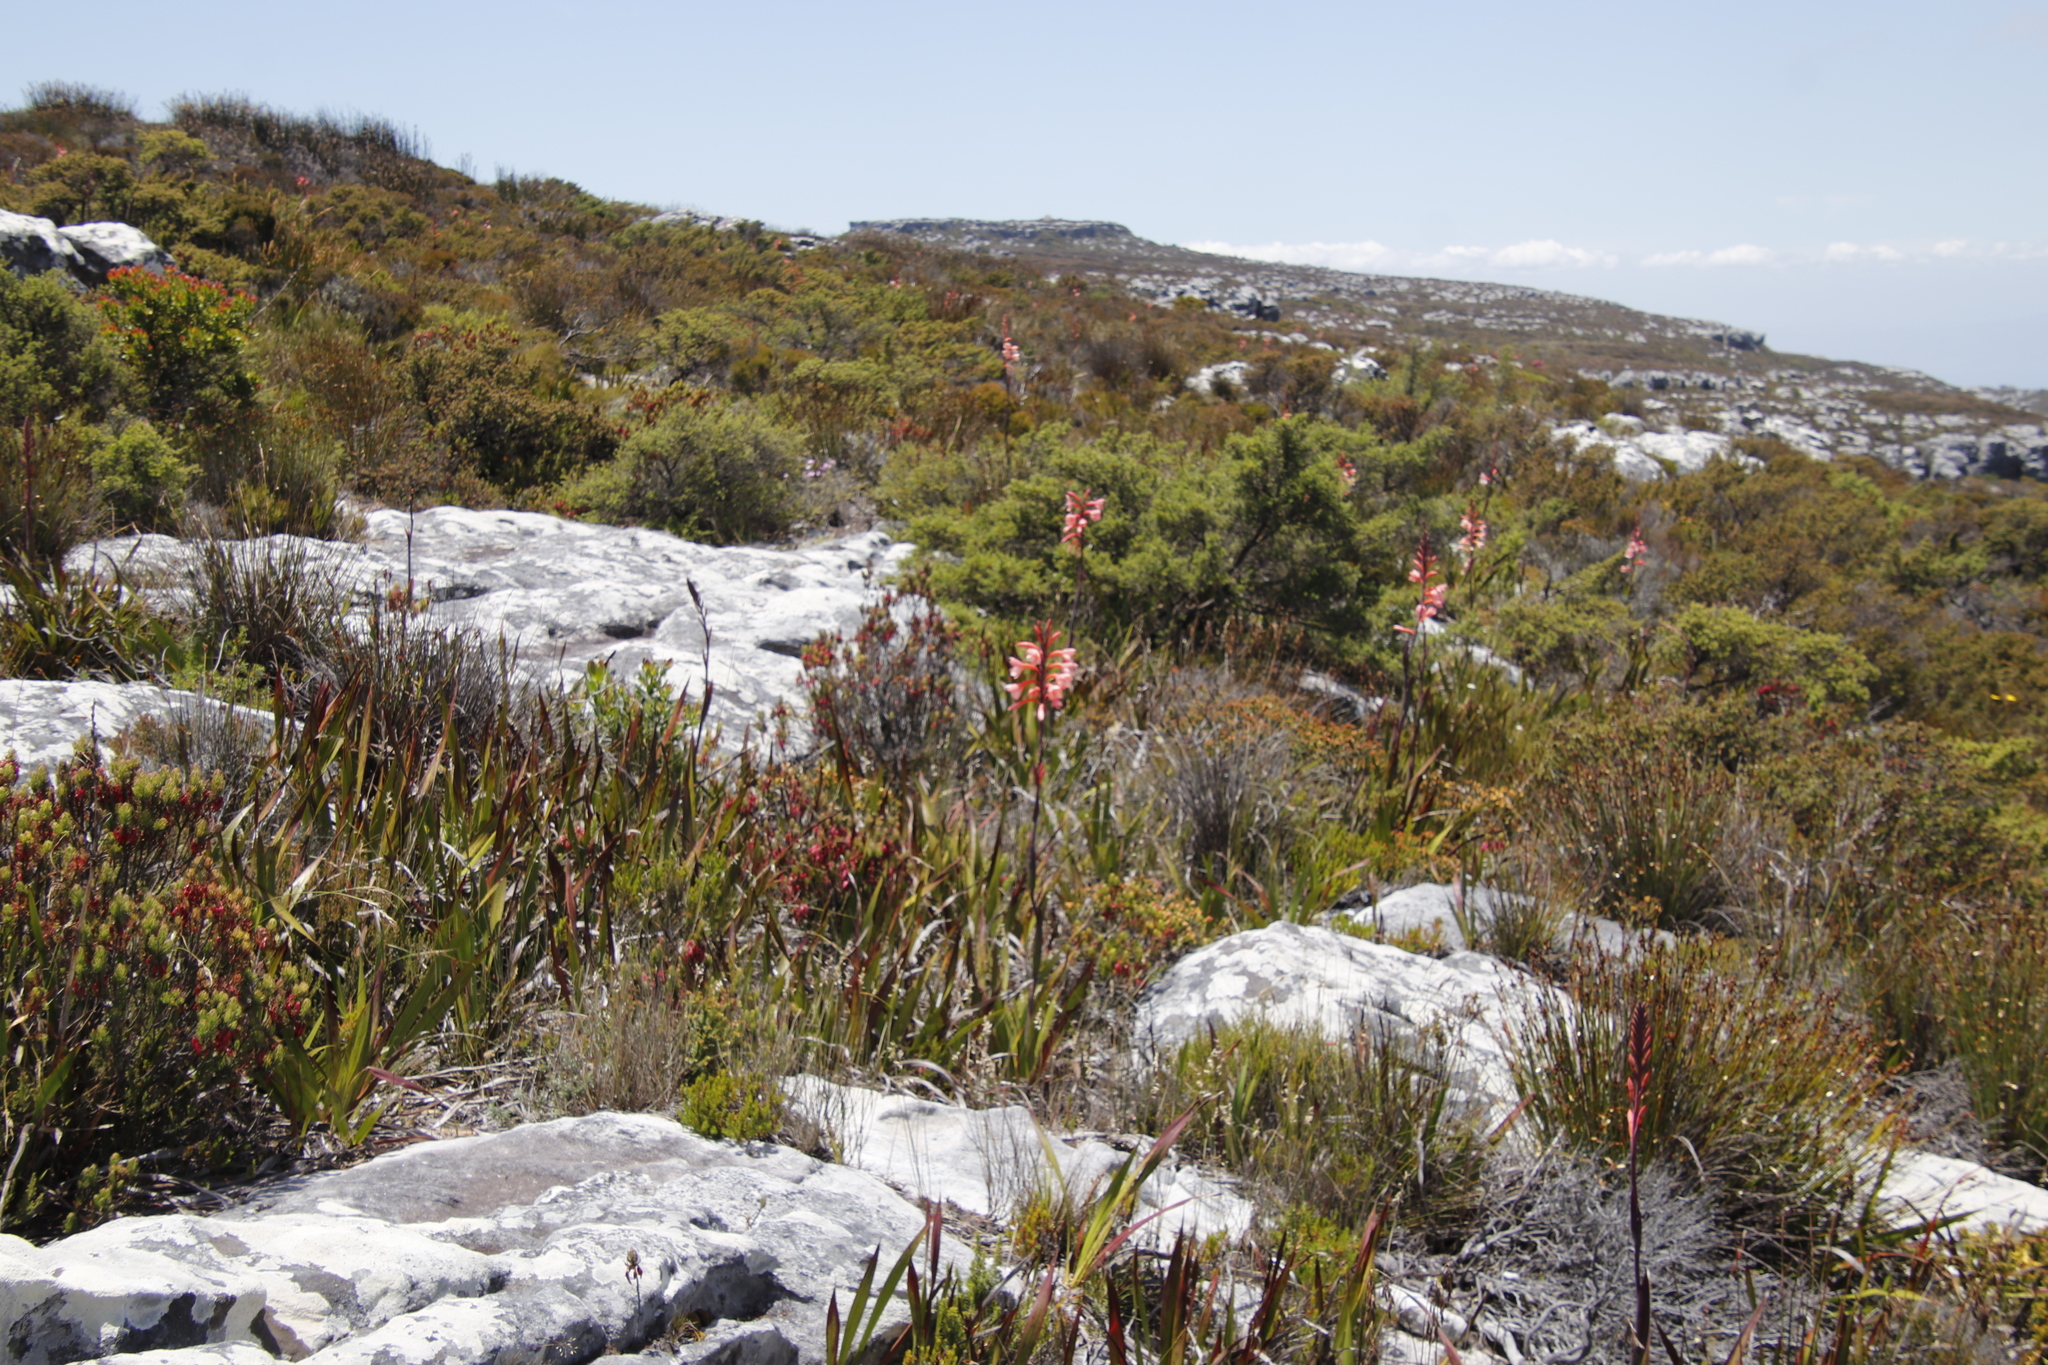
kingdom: Plantae
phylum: Tracheophyta
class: Liliopsida
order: Asparagales
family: Iridaceae
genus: Watsonia
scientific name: Watsonia tabularis
